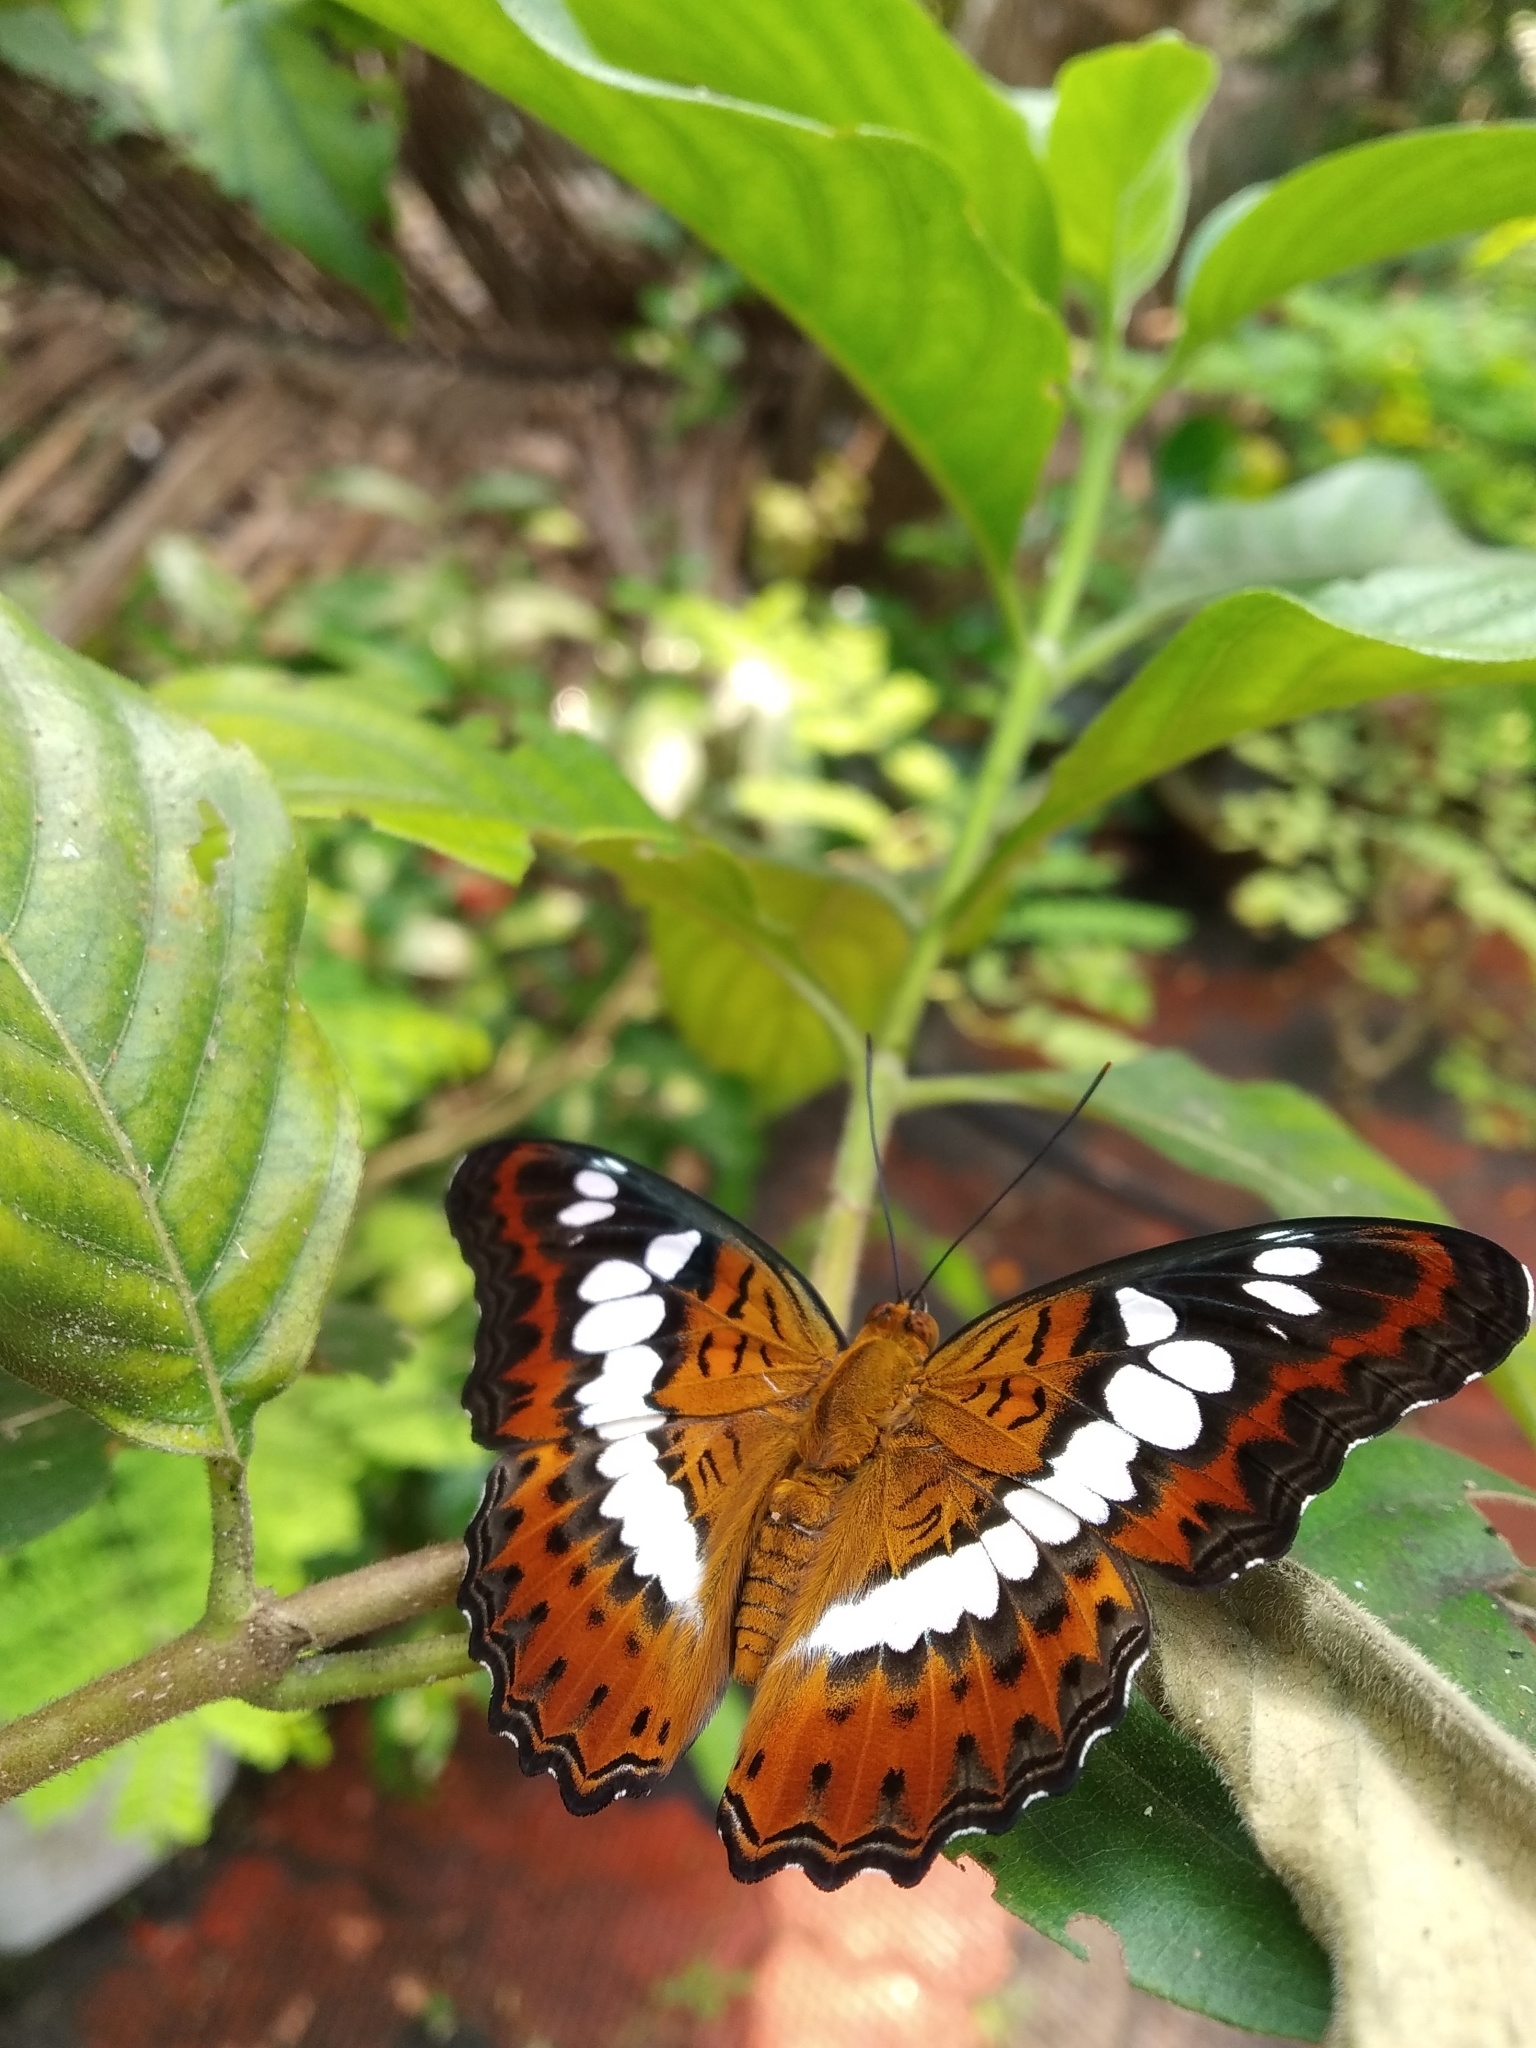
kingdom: Animalia
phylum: Arthropoda
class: Insecta
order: Lepidoptera
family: Nymphalidae
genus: Limenitis
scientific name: Limenitis Moduza procris
